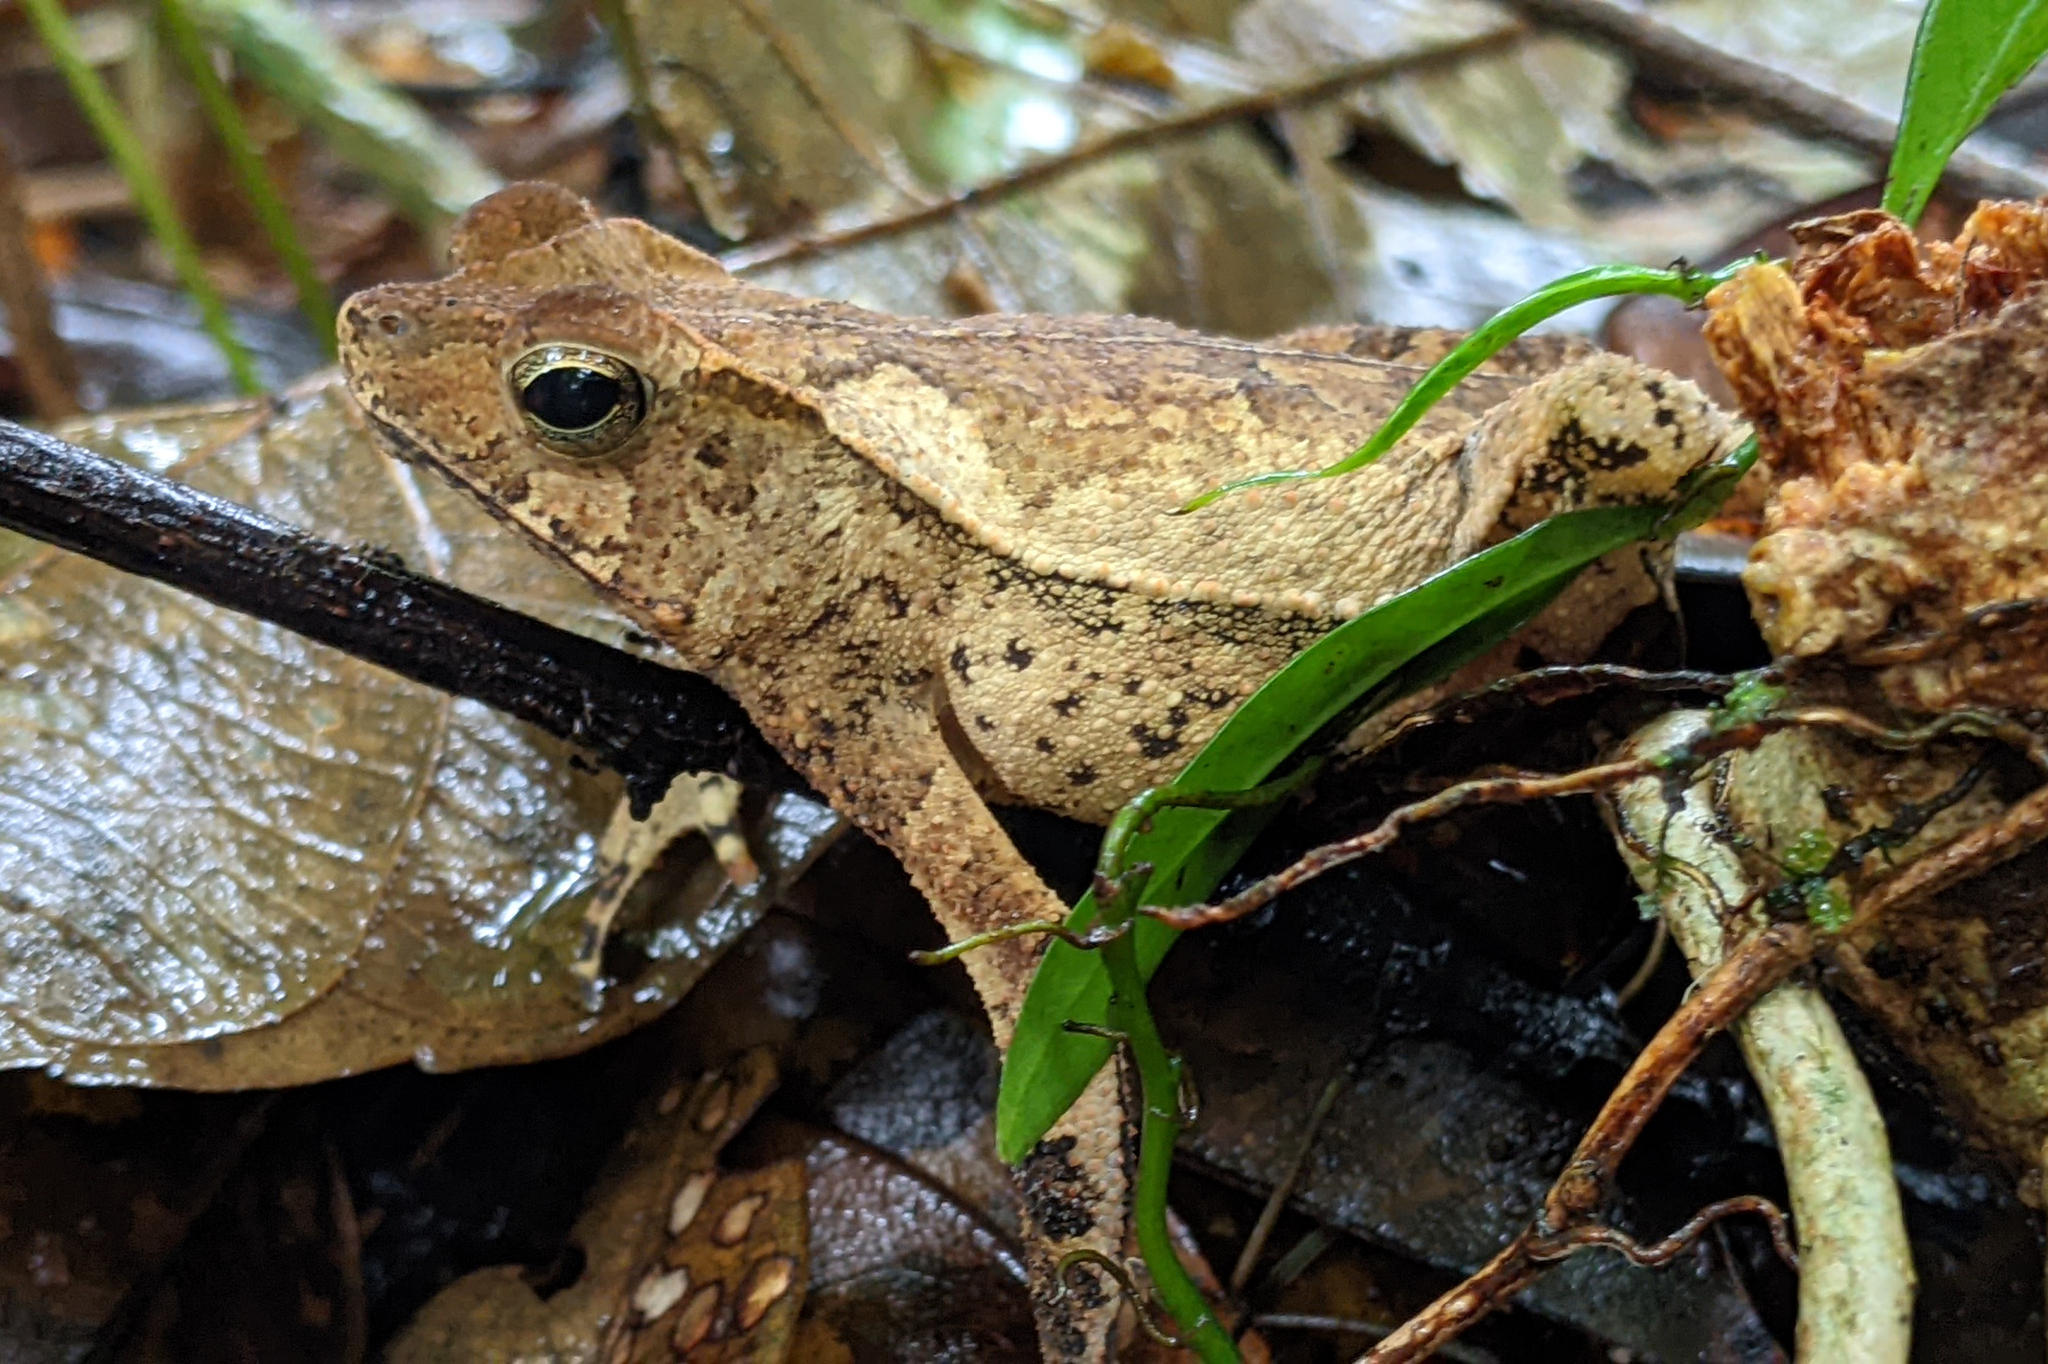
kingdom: Animalia
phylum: Chordata
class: Amphibia
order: Anura
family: Bufonidae
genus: Rhinella
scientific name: Rhinella lescurei
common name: Guiana shield leaf toad
